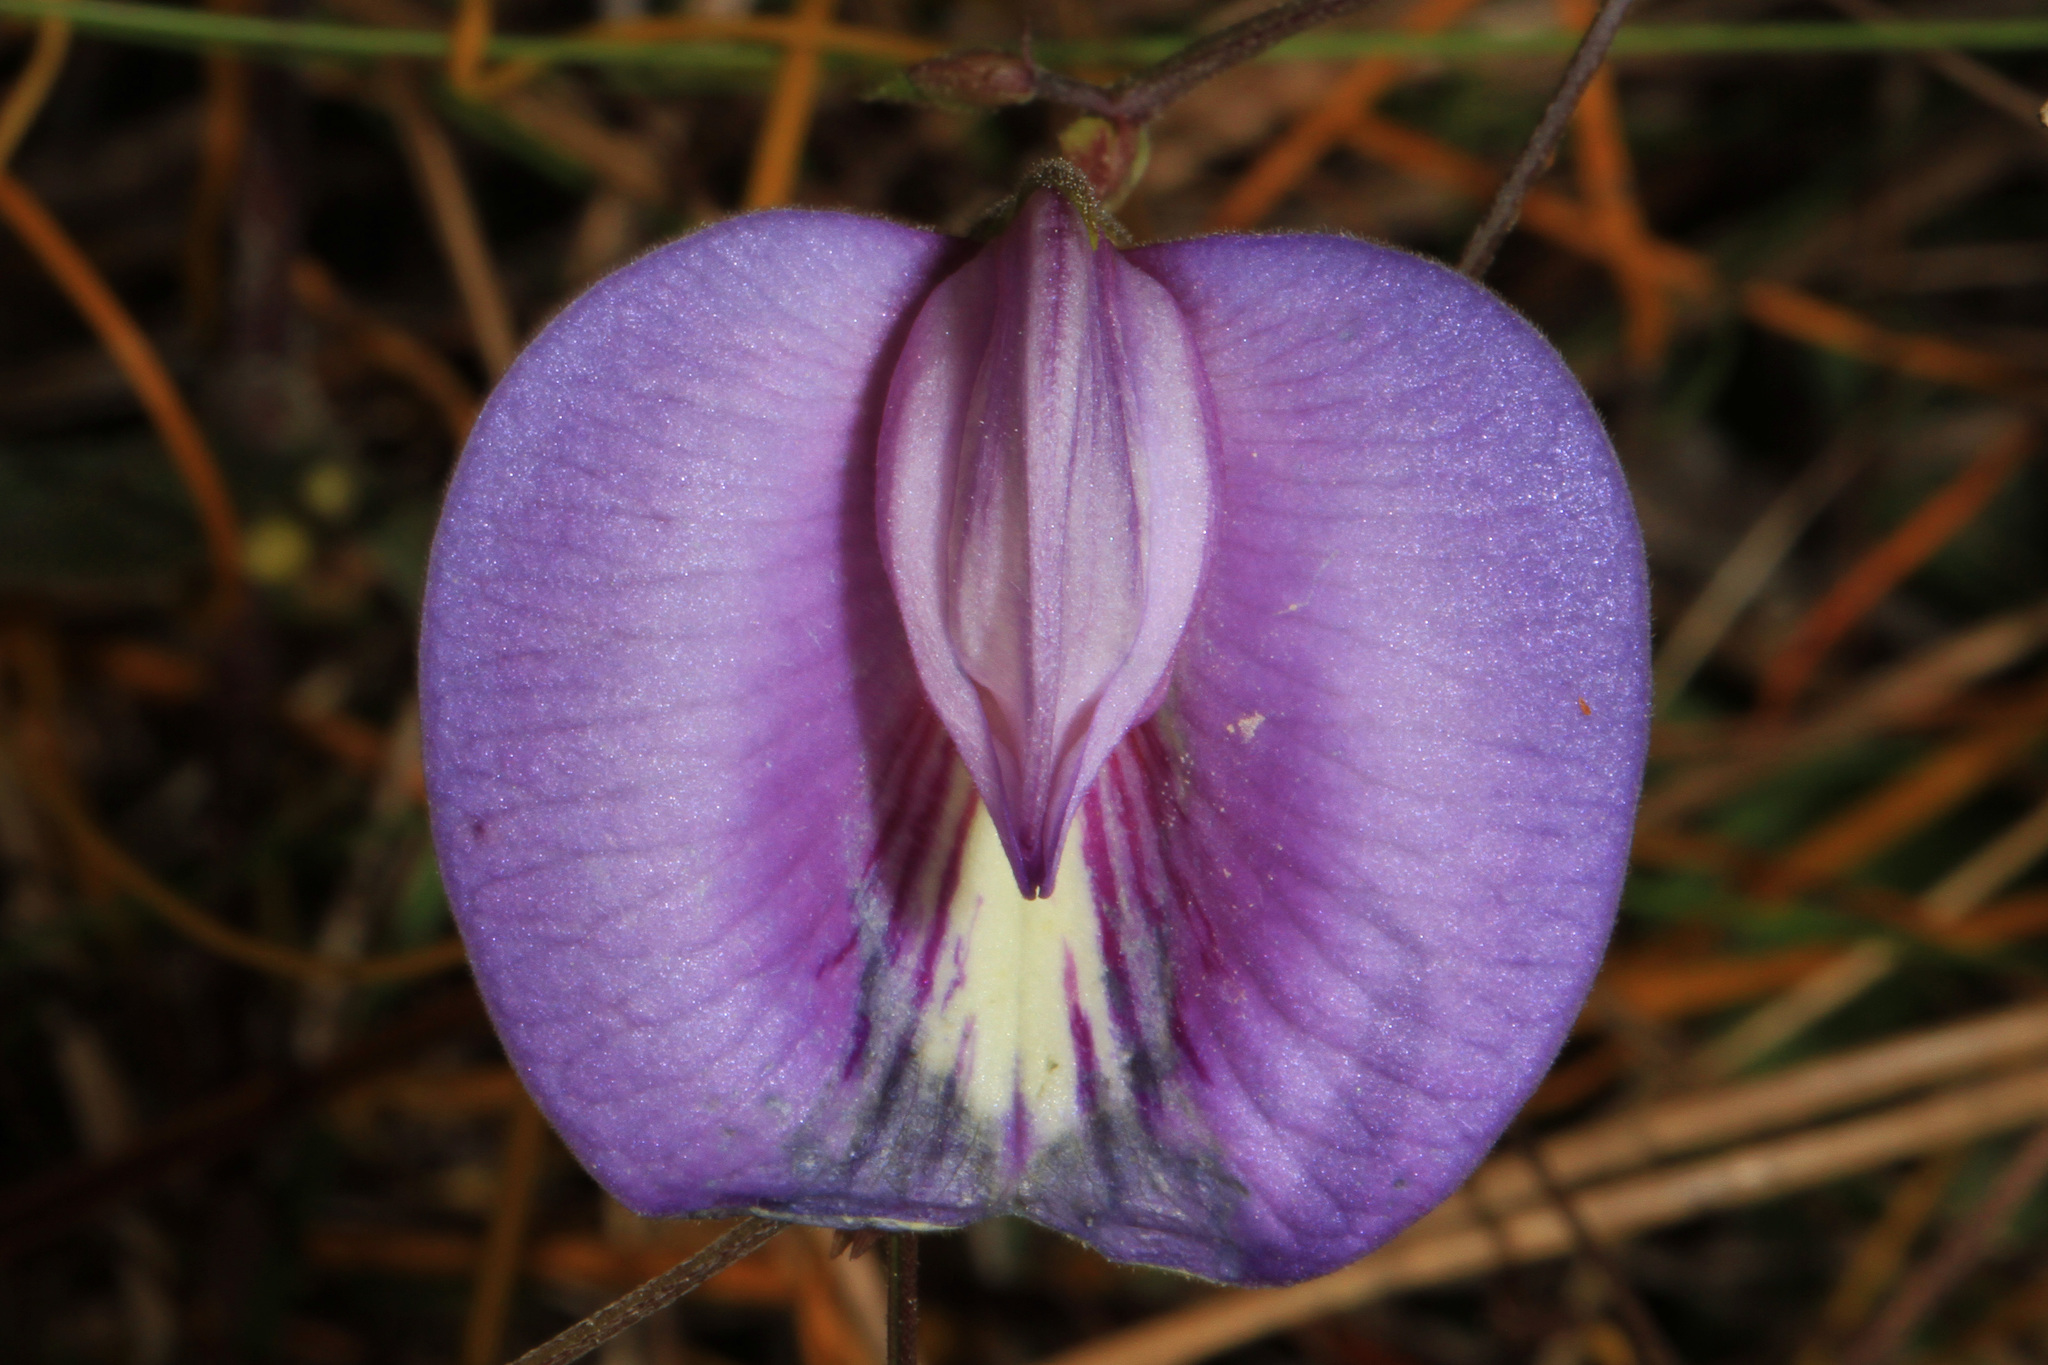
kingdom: Plantae
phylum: Tracheophyta
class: Magnoliopsida
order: Fabales
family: Fabaceae
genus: Centrosema
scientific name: Centrosema virginianum
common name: Butterfly-pea
